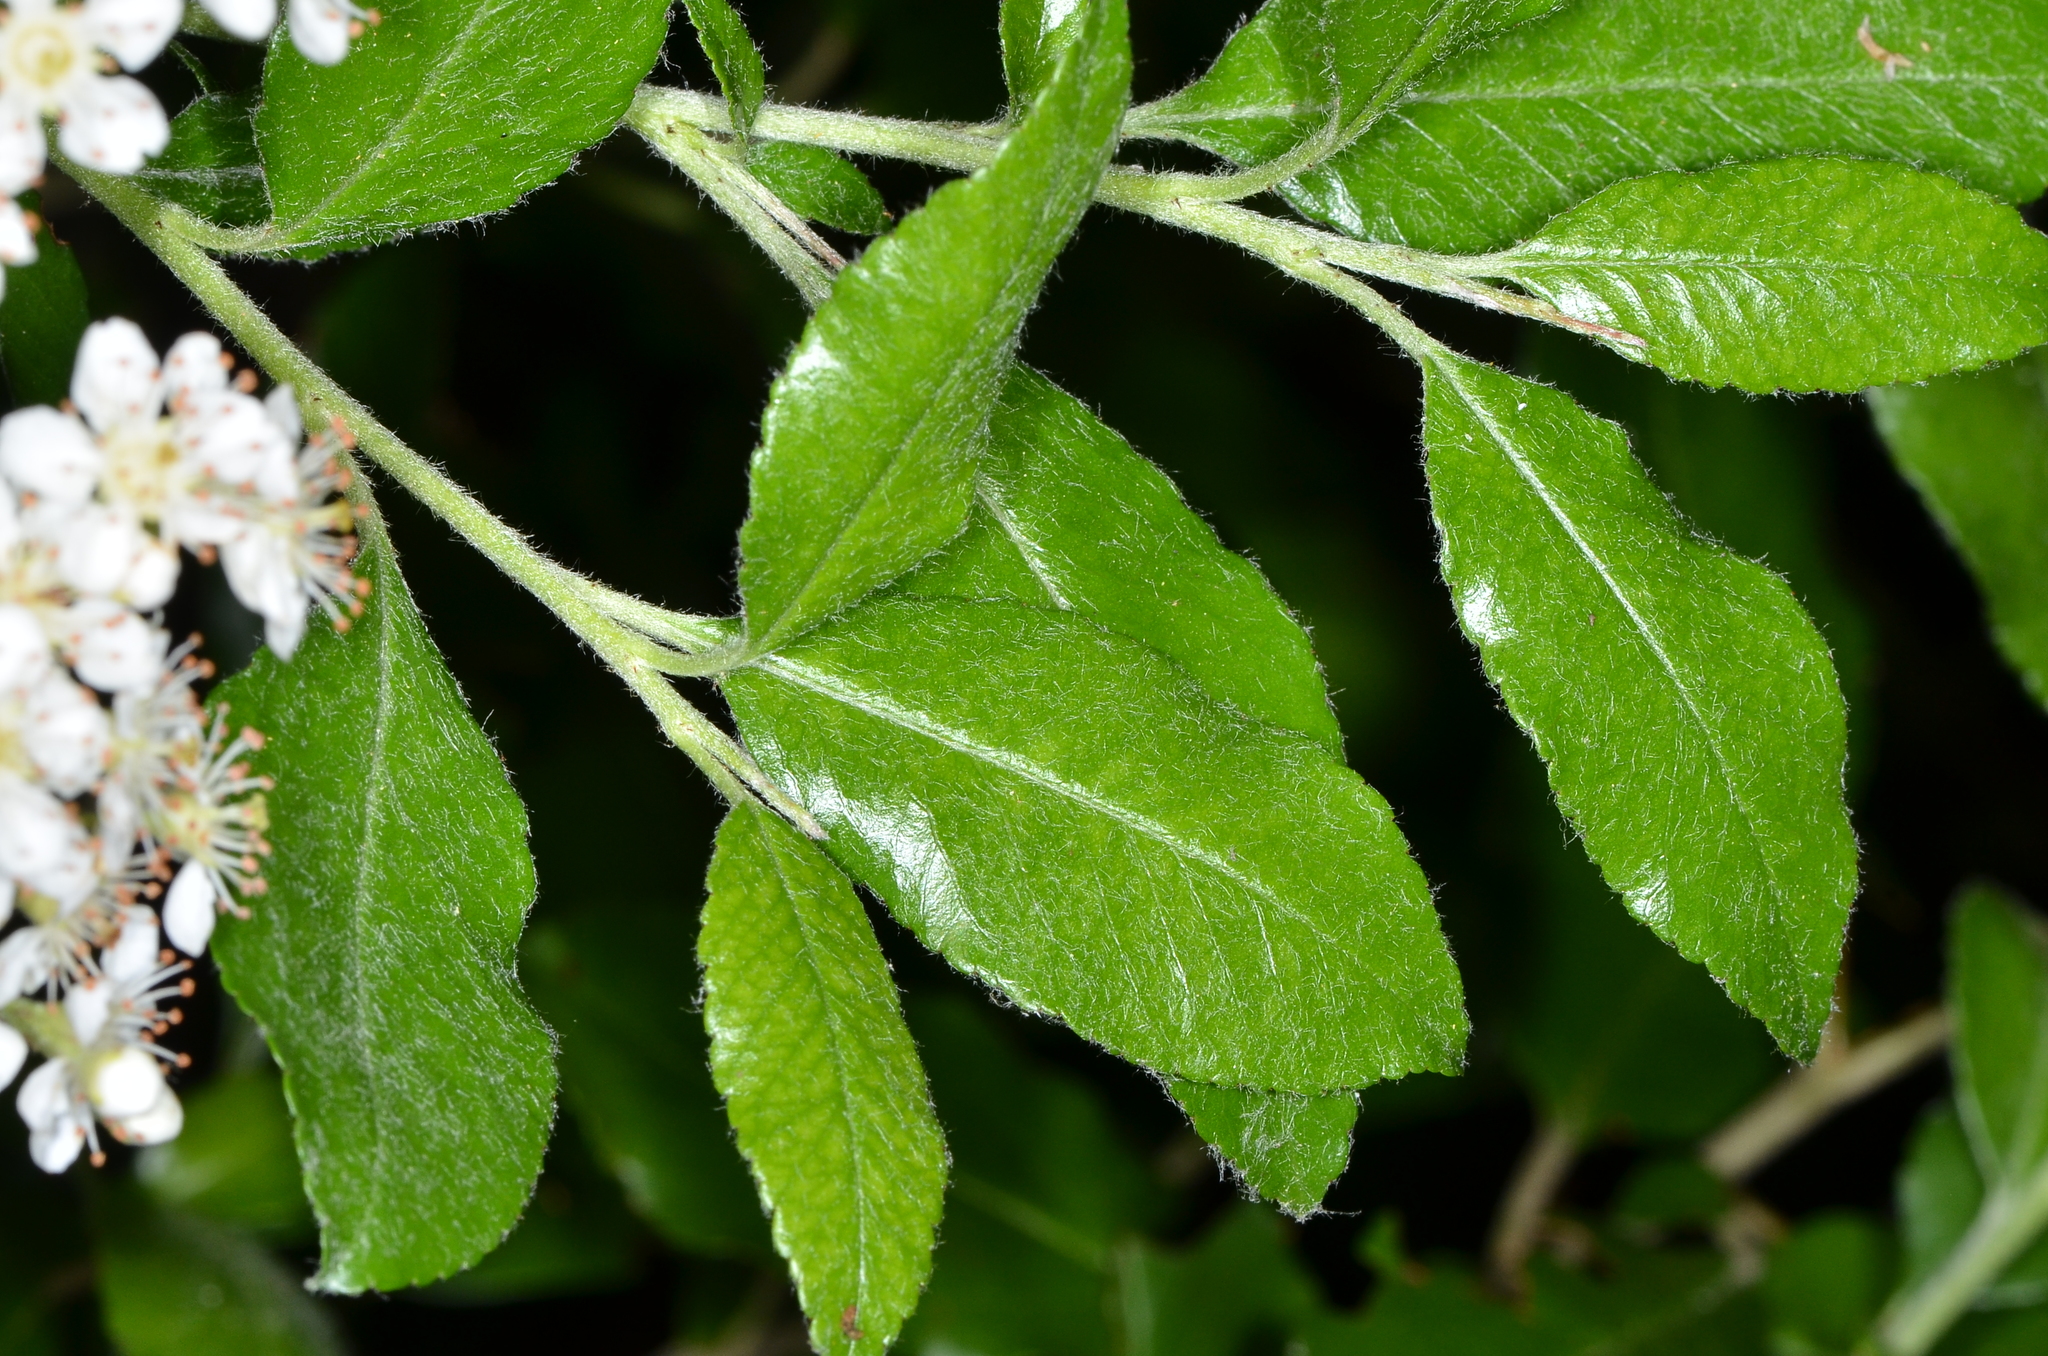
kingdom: Plantae
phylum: Tracheophyta
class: Magnoliopsida
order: Rosales
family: Rosaceae
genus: Prunus
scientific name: Prunus emarginata
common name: Bitter cherry
